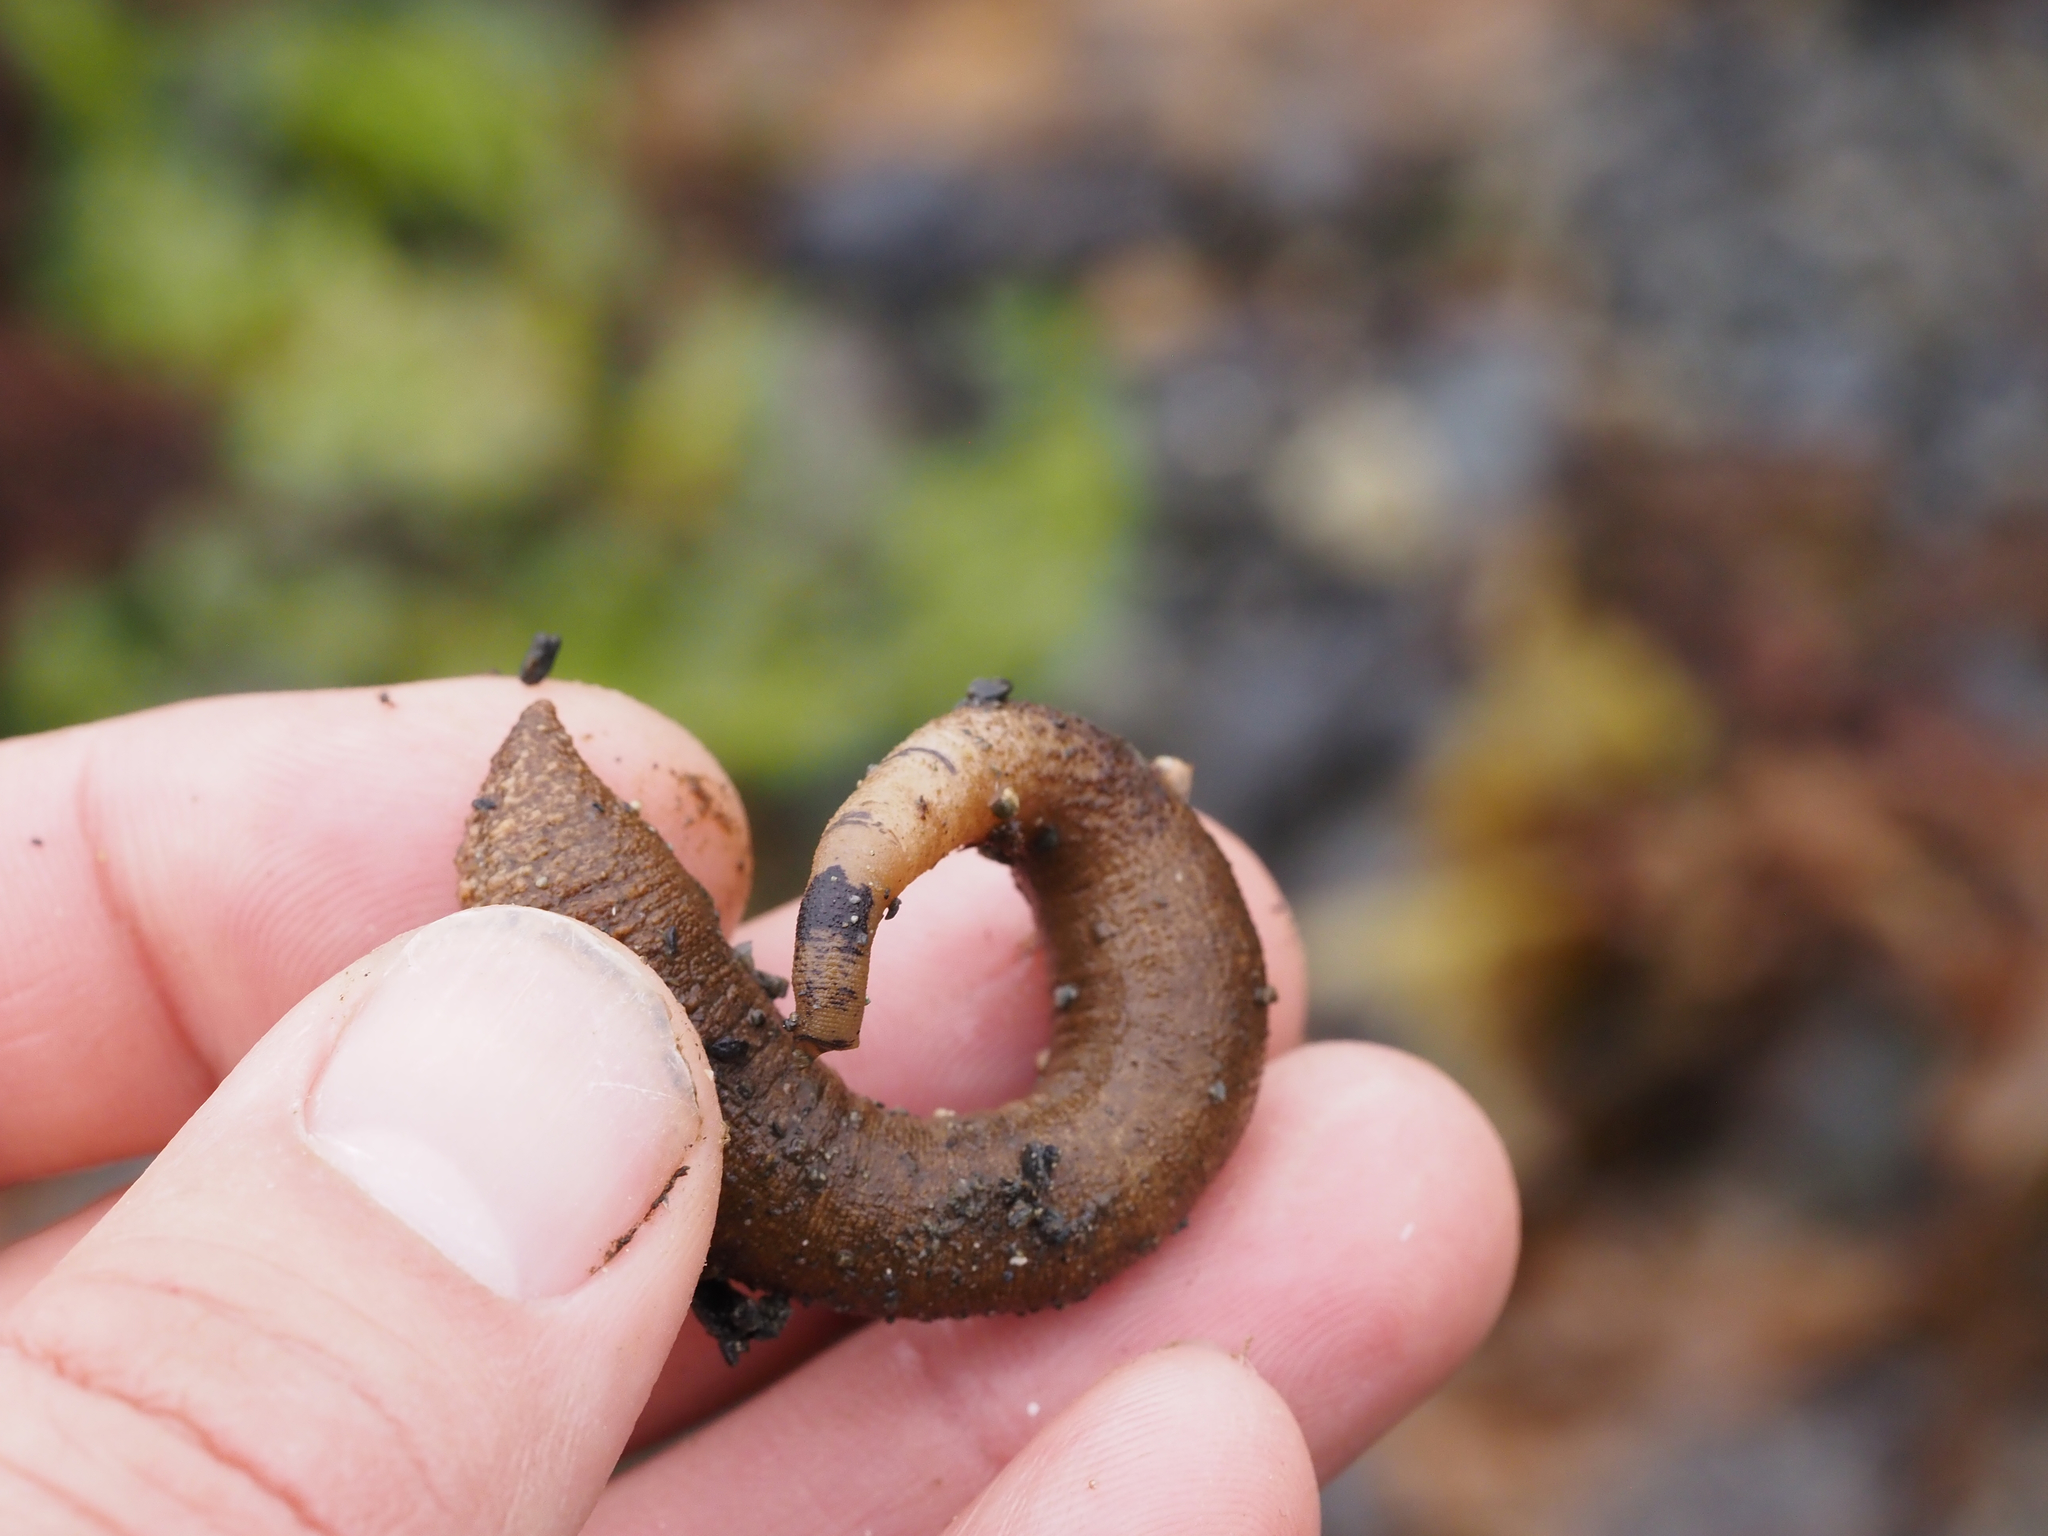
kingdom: Animalia
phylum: Sipuncula
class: Phascolosomatidea
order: Phascolosomatiformes
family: Phascolosomatidae
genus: Phascolosoma
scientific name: Phascolosoma agassizii
